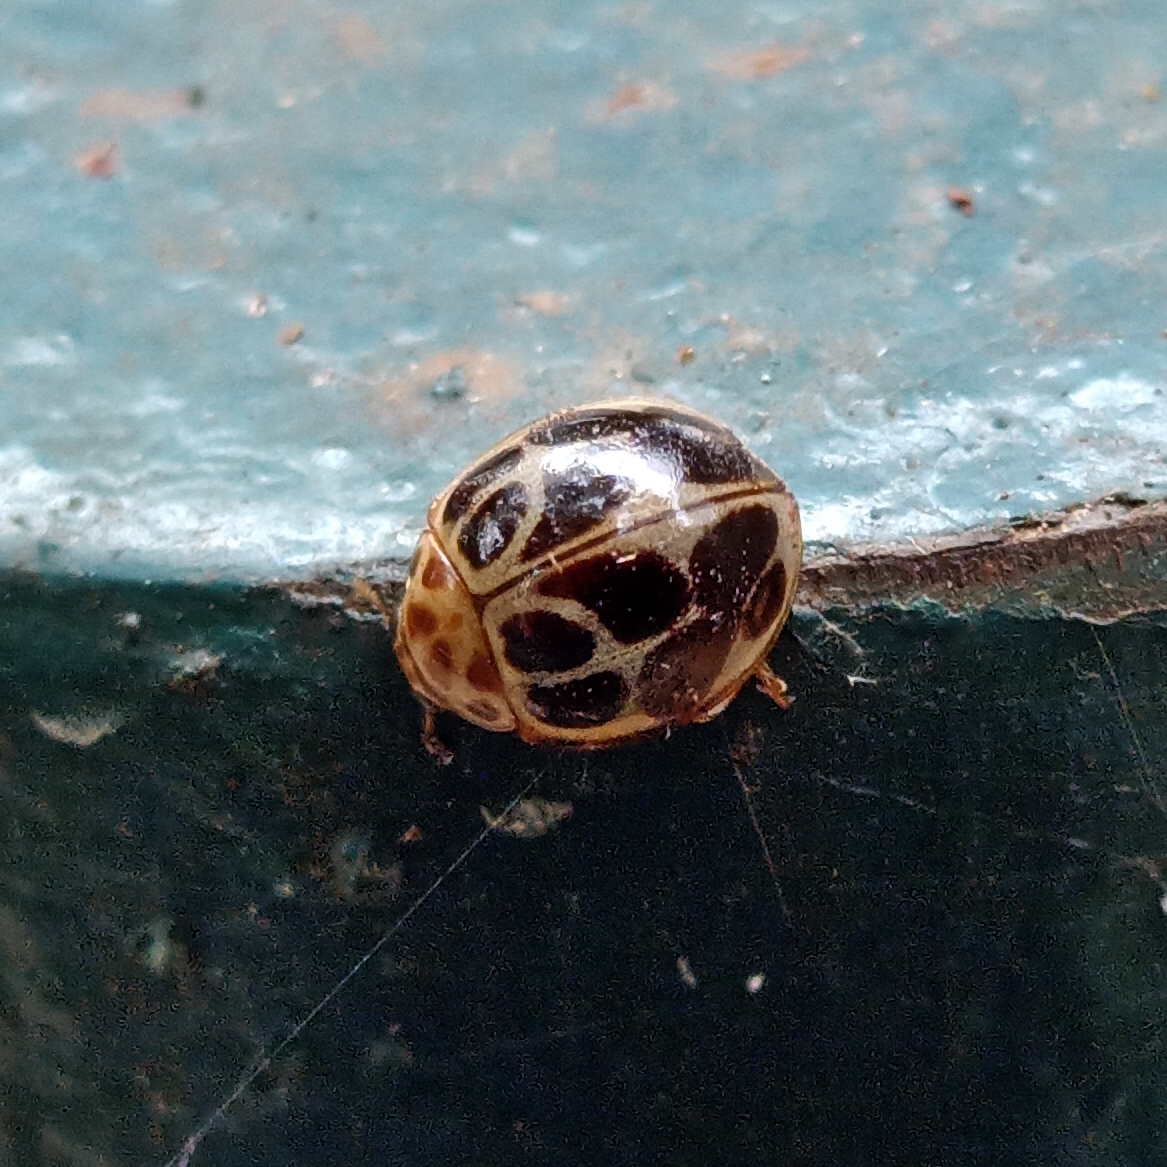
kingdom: Animalia
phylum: Arthropoda
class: Insecta
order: Coleoptera
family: Coccinellidae
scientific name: Coccinellidae
